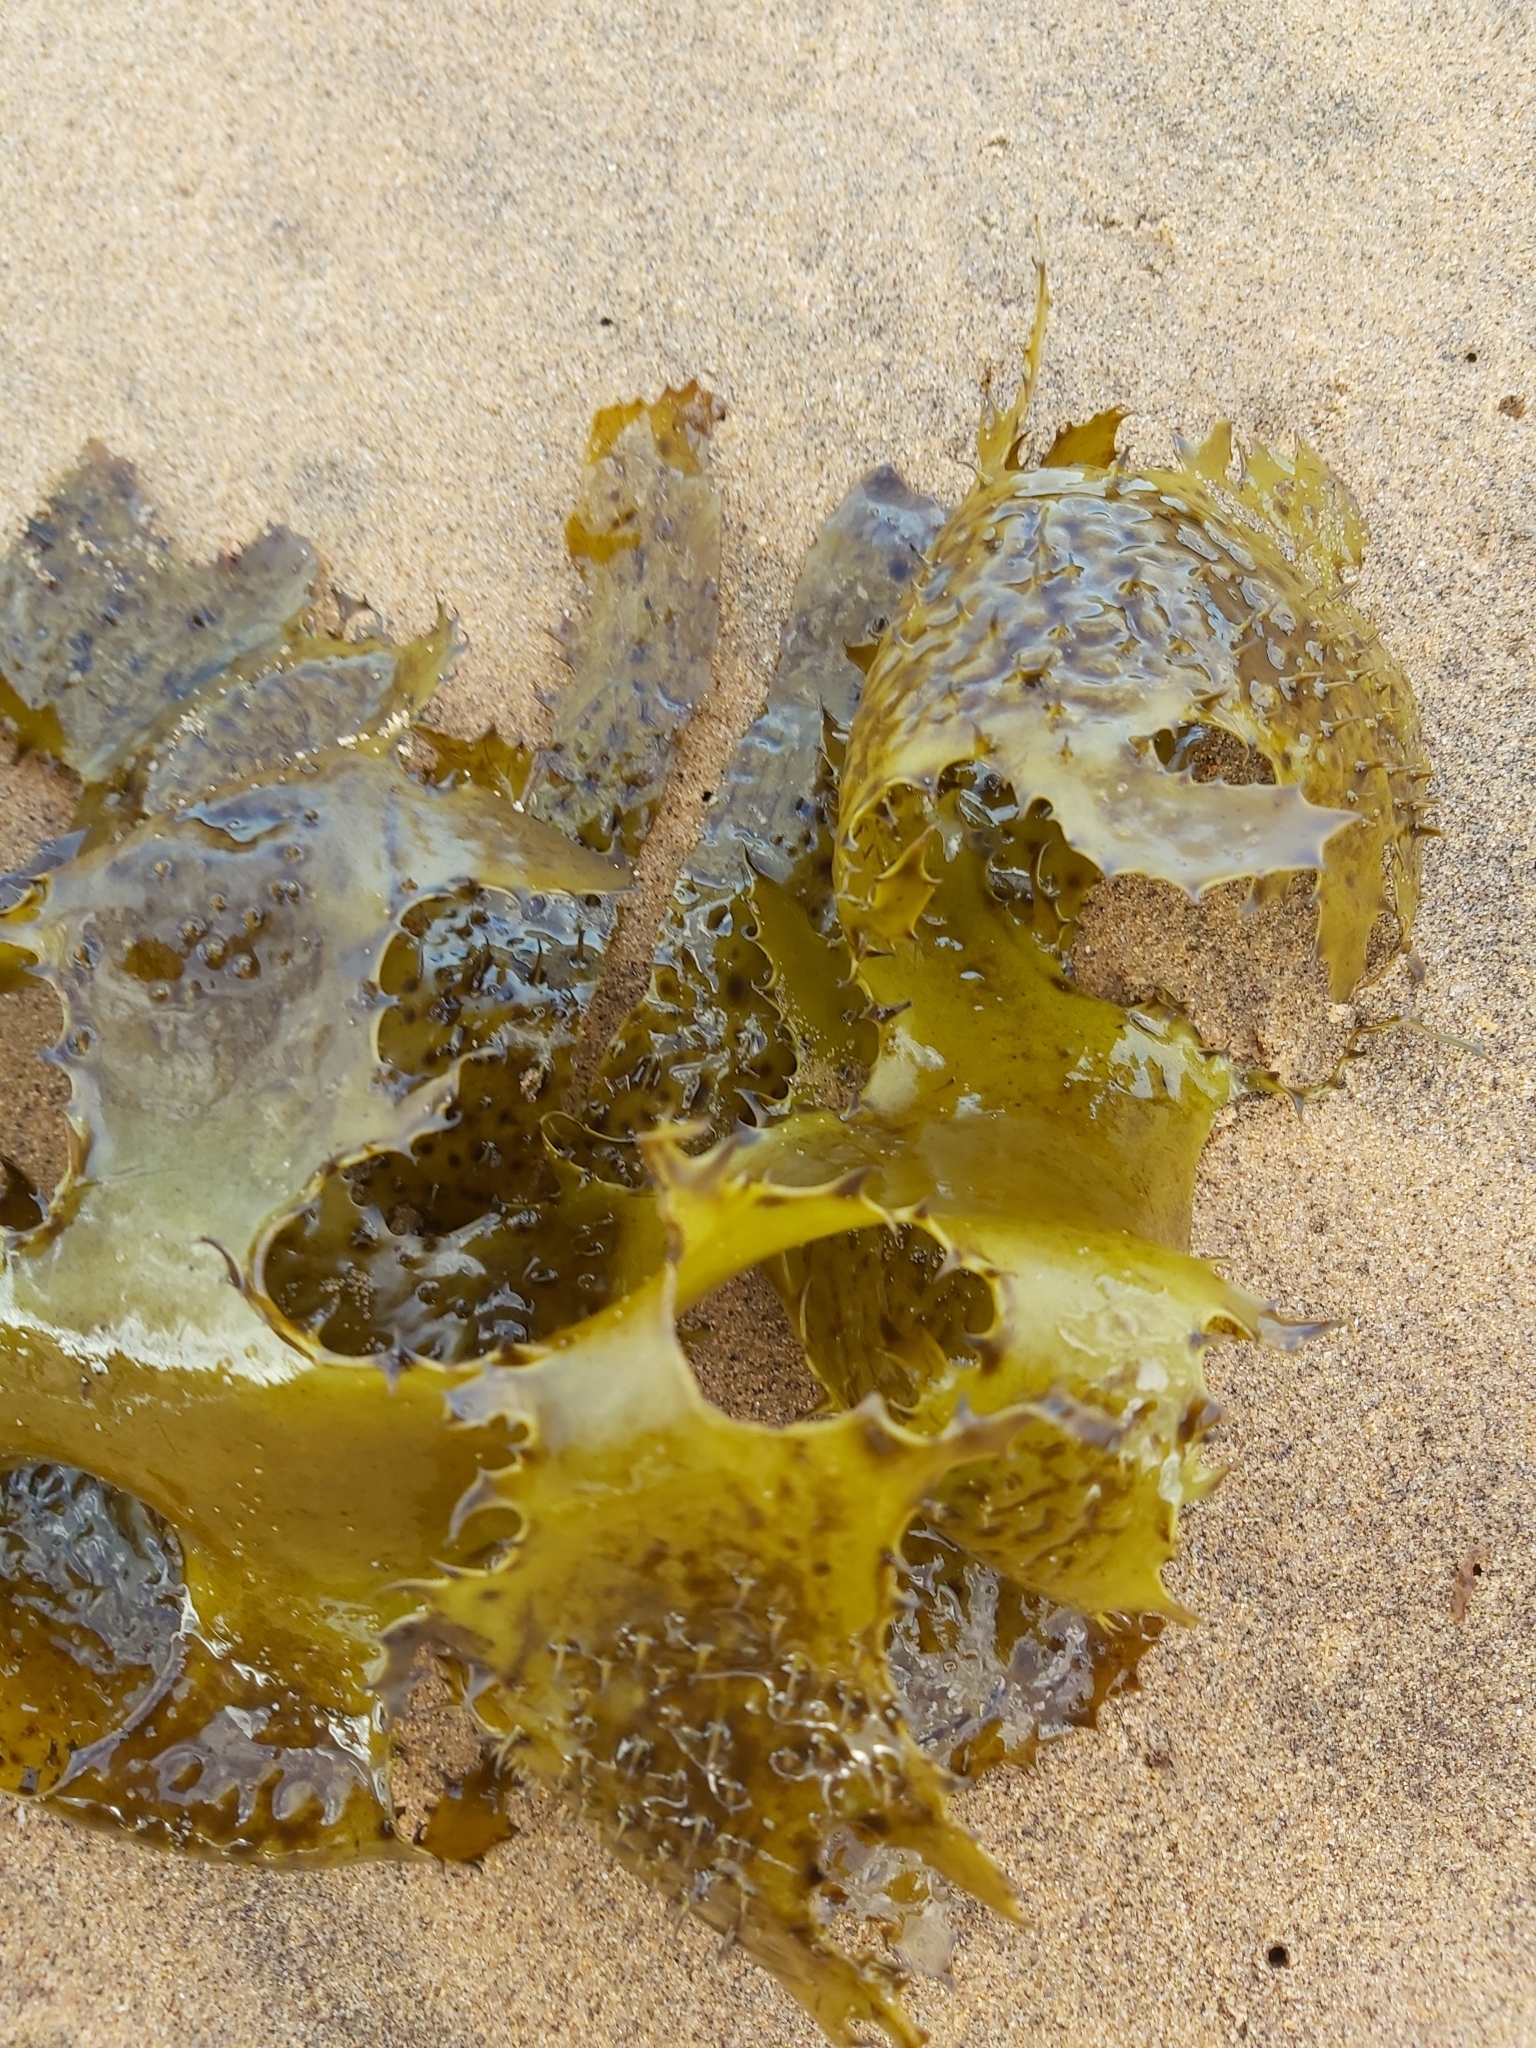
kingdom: Chromista
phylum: Ochrophyta
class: Phaeophyceae
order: Laminariales
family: Lessoniaceae
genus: Ecklonia
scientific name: Ecklonia radiata
